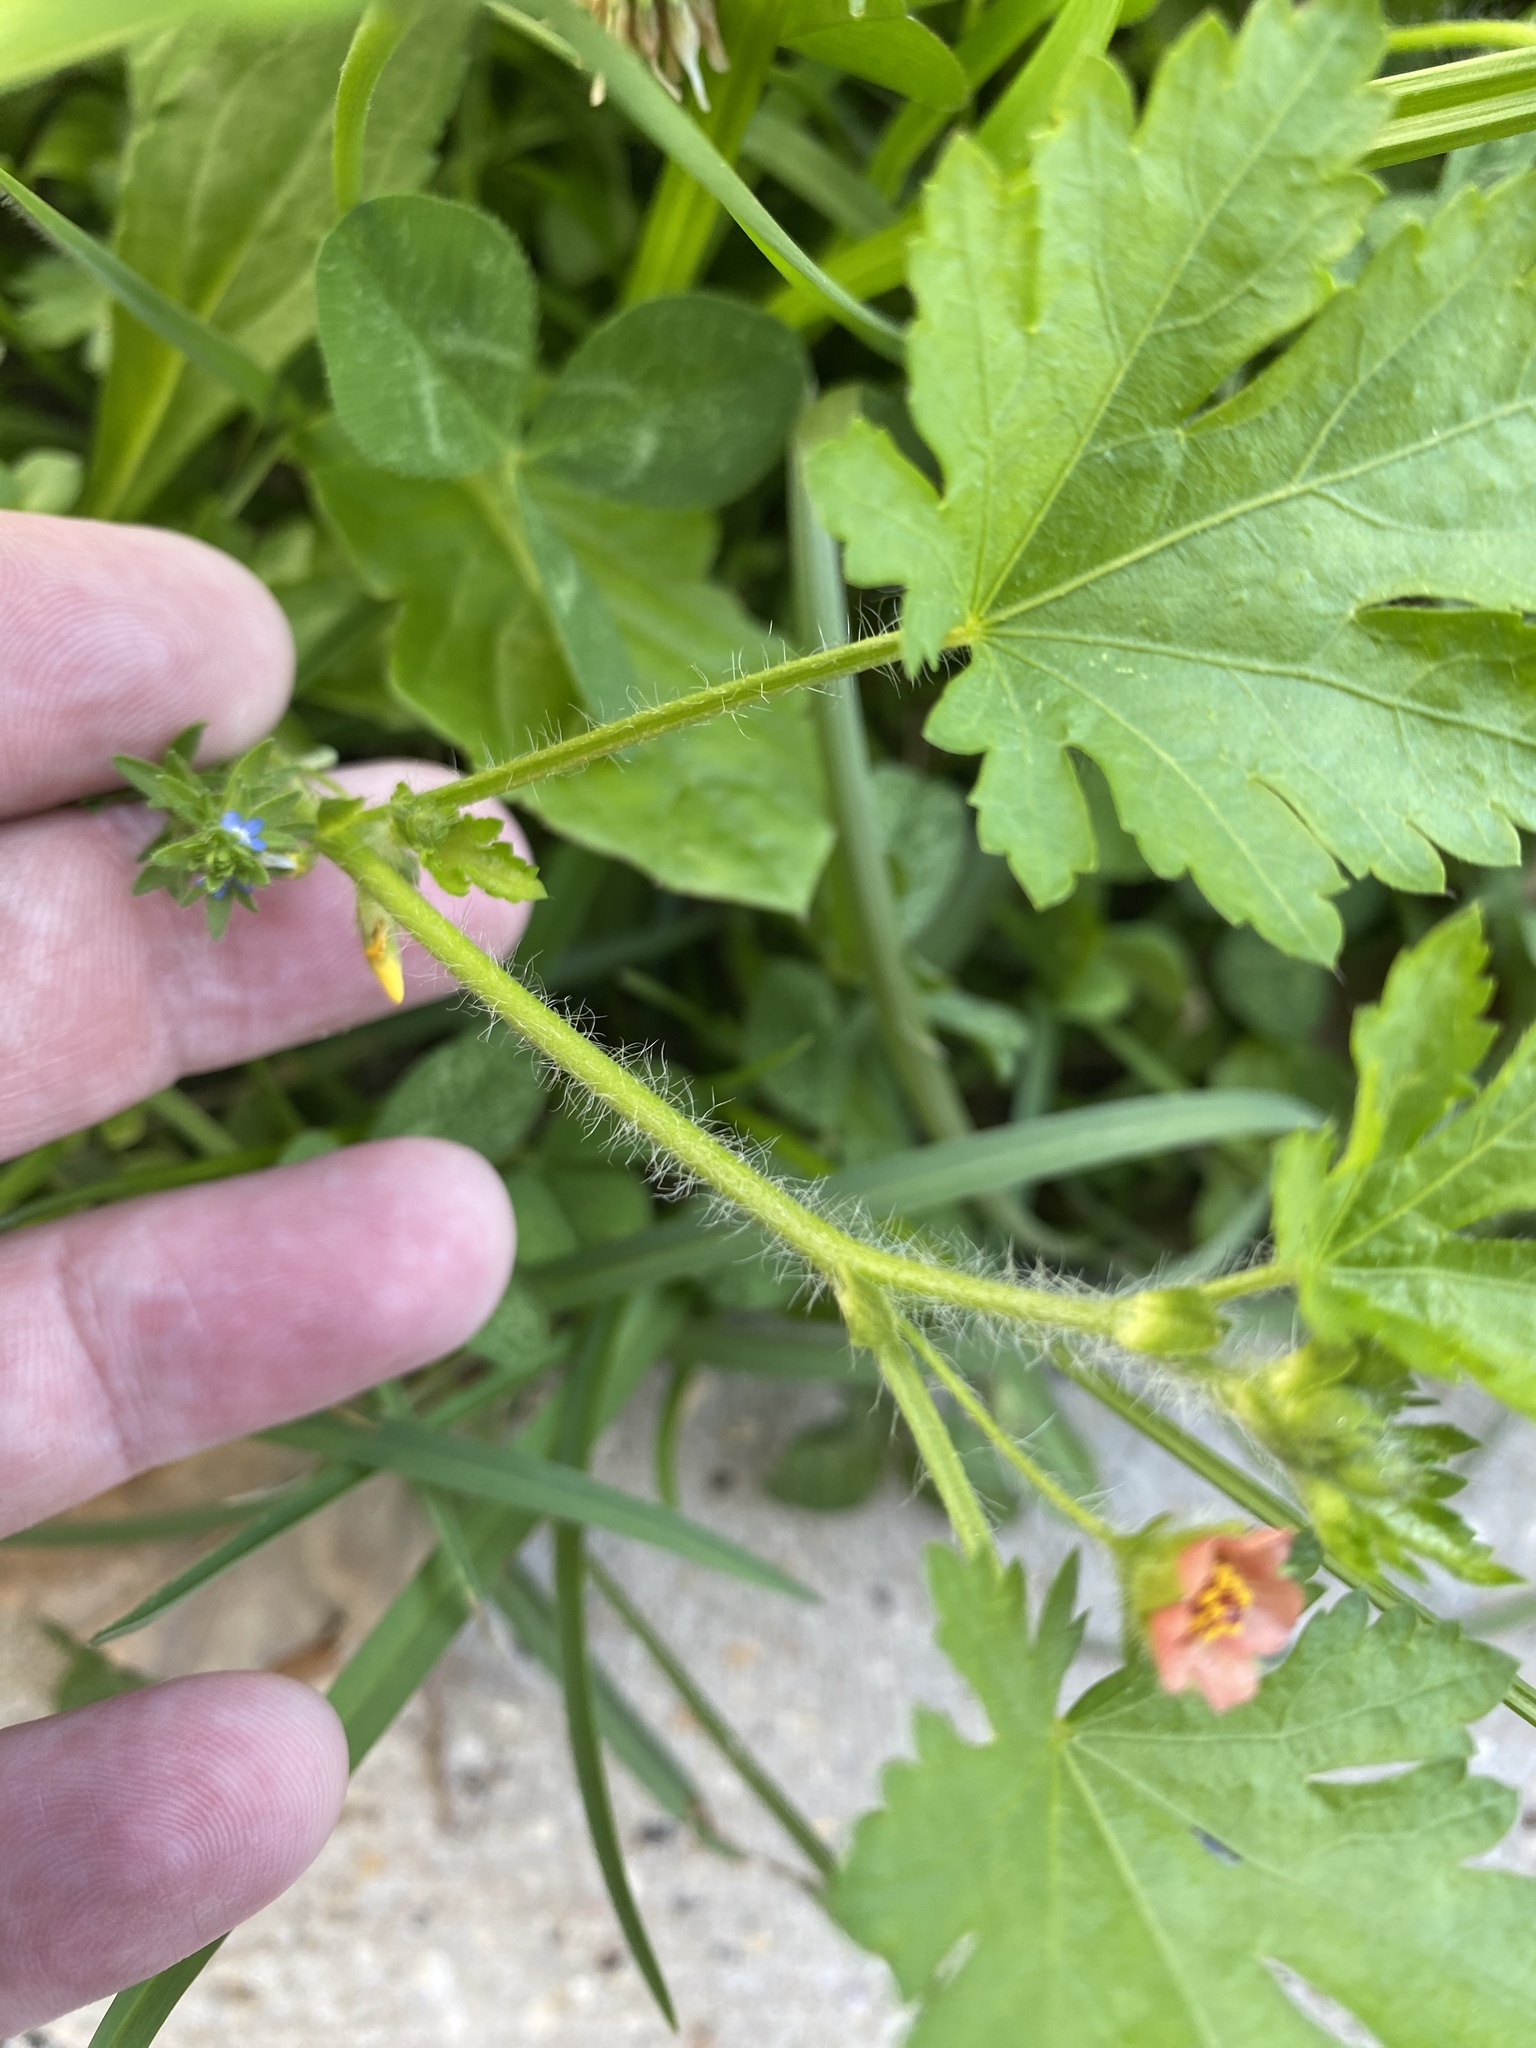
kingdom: Plantae
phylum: Tracheophyta
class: Magnoliopsida
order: Malvales
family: Malvaceae
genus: Modiola
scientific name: Modiola caroliniana
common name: Carolina bristlemallow
